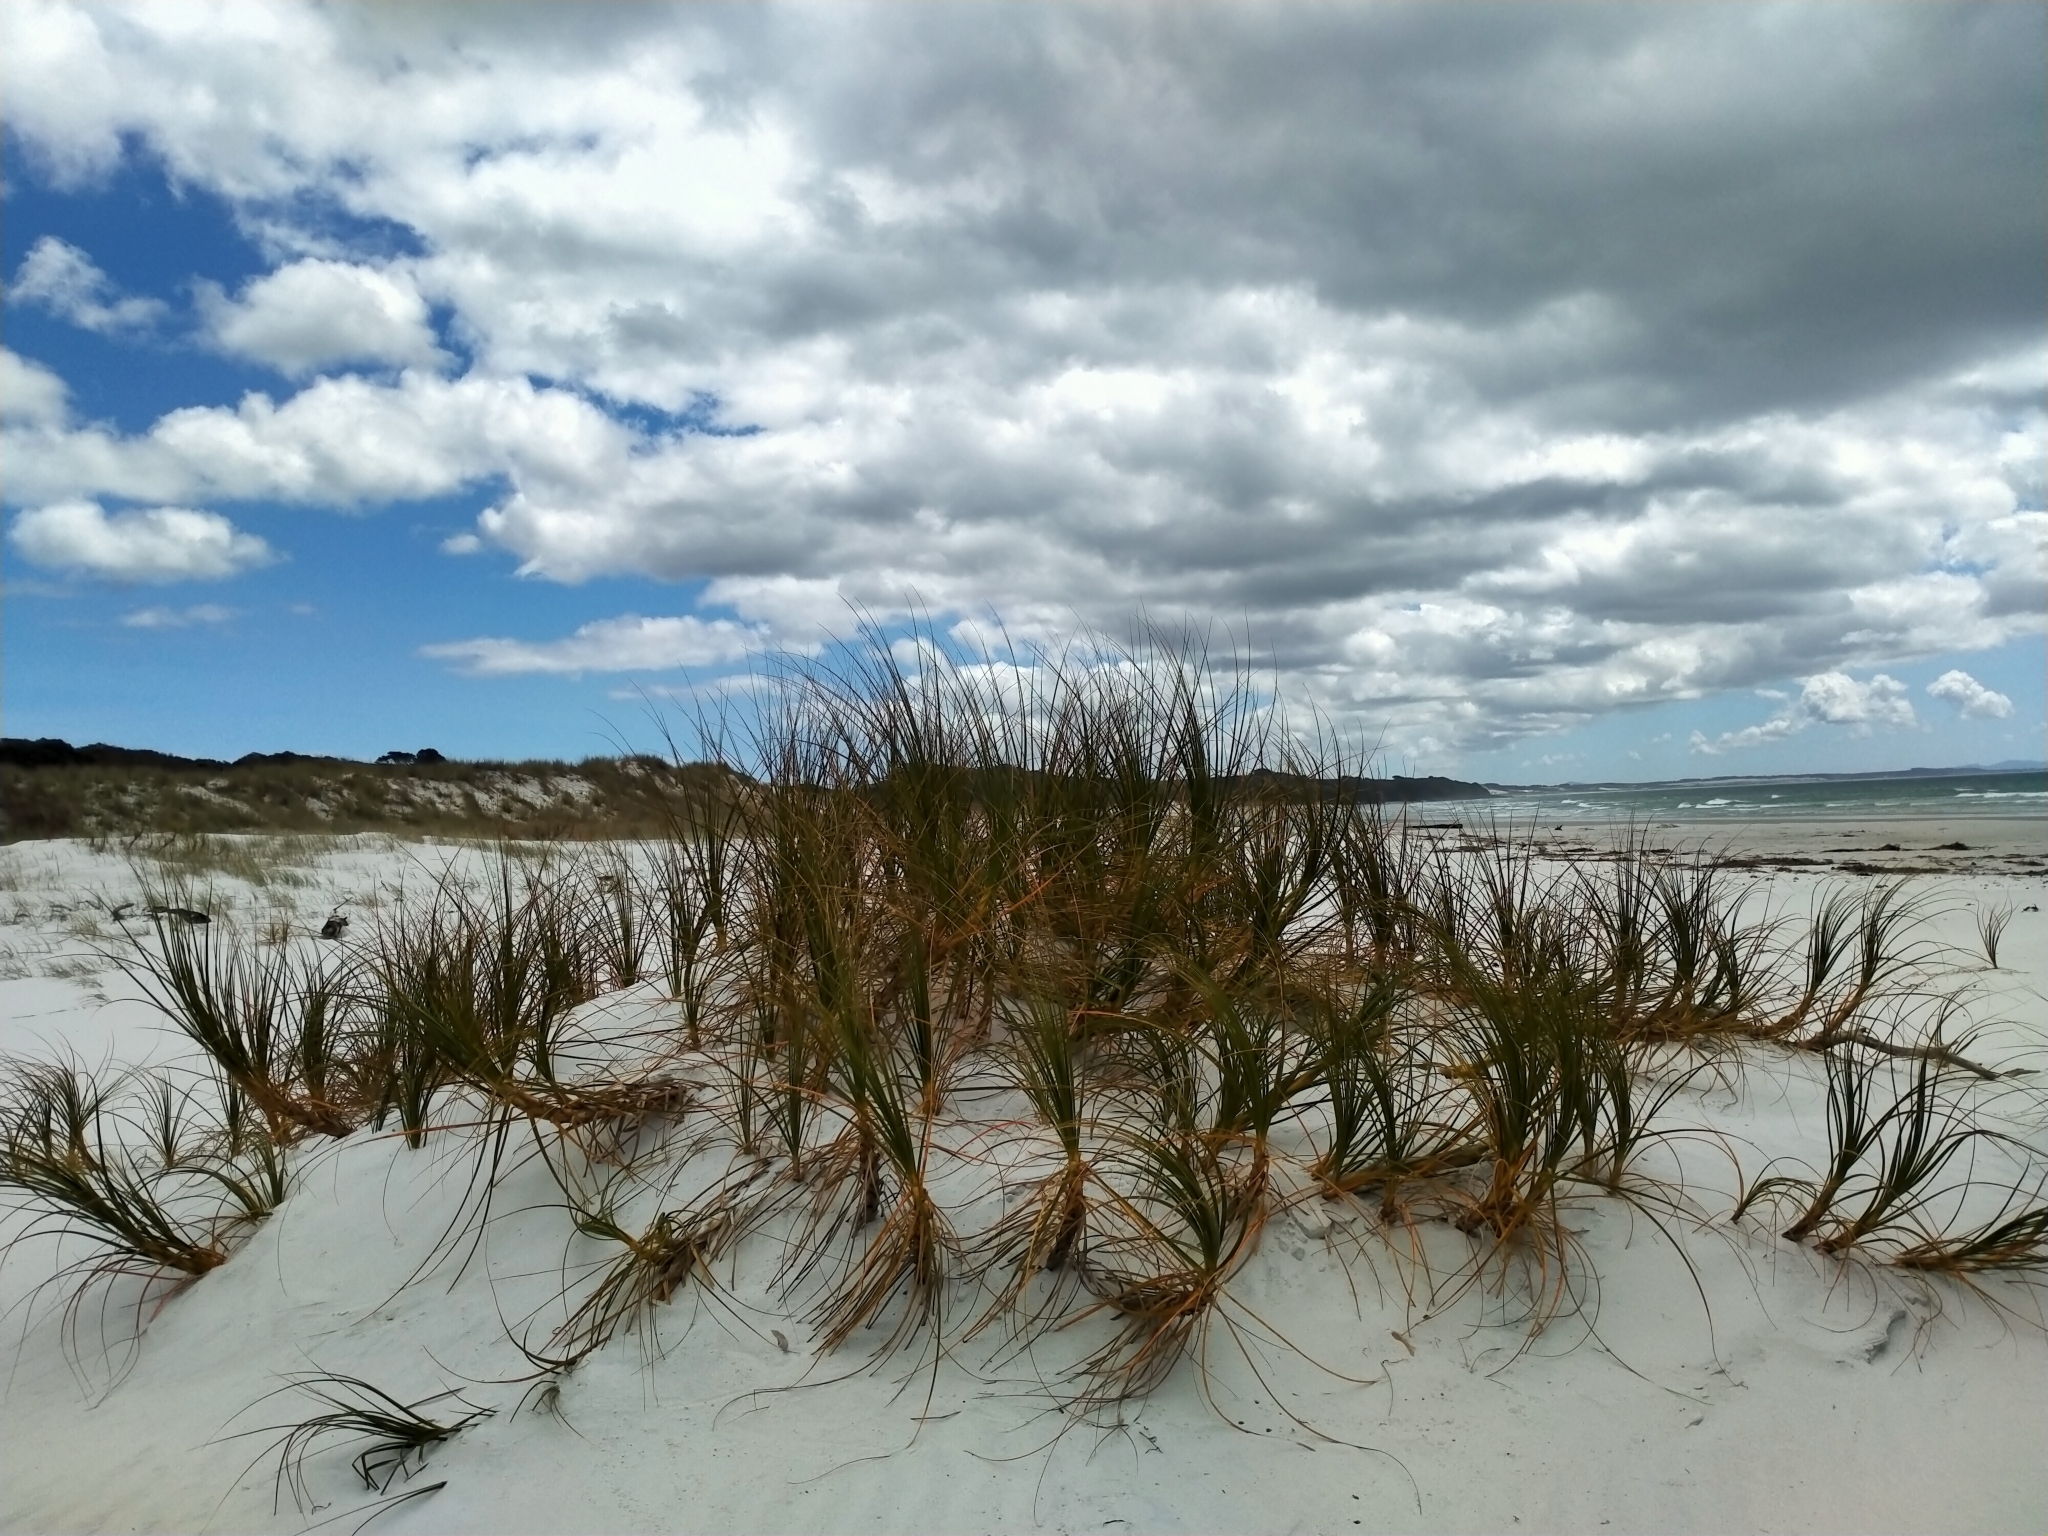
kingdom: Plantae
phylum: Tracheophyta
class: Liliopsida
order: Poales
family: Cyperaceae
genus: Ficinia
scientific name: Ficinia spiralis
